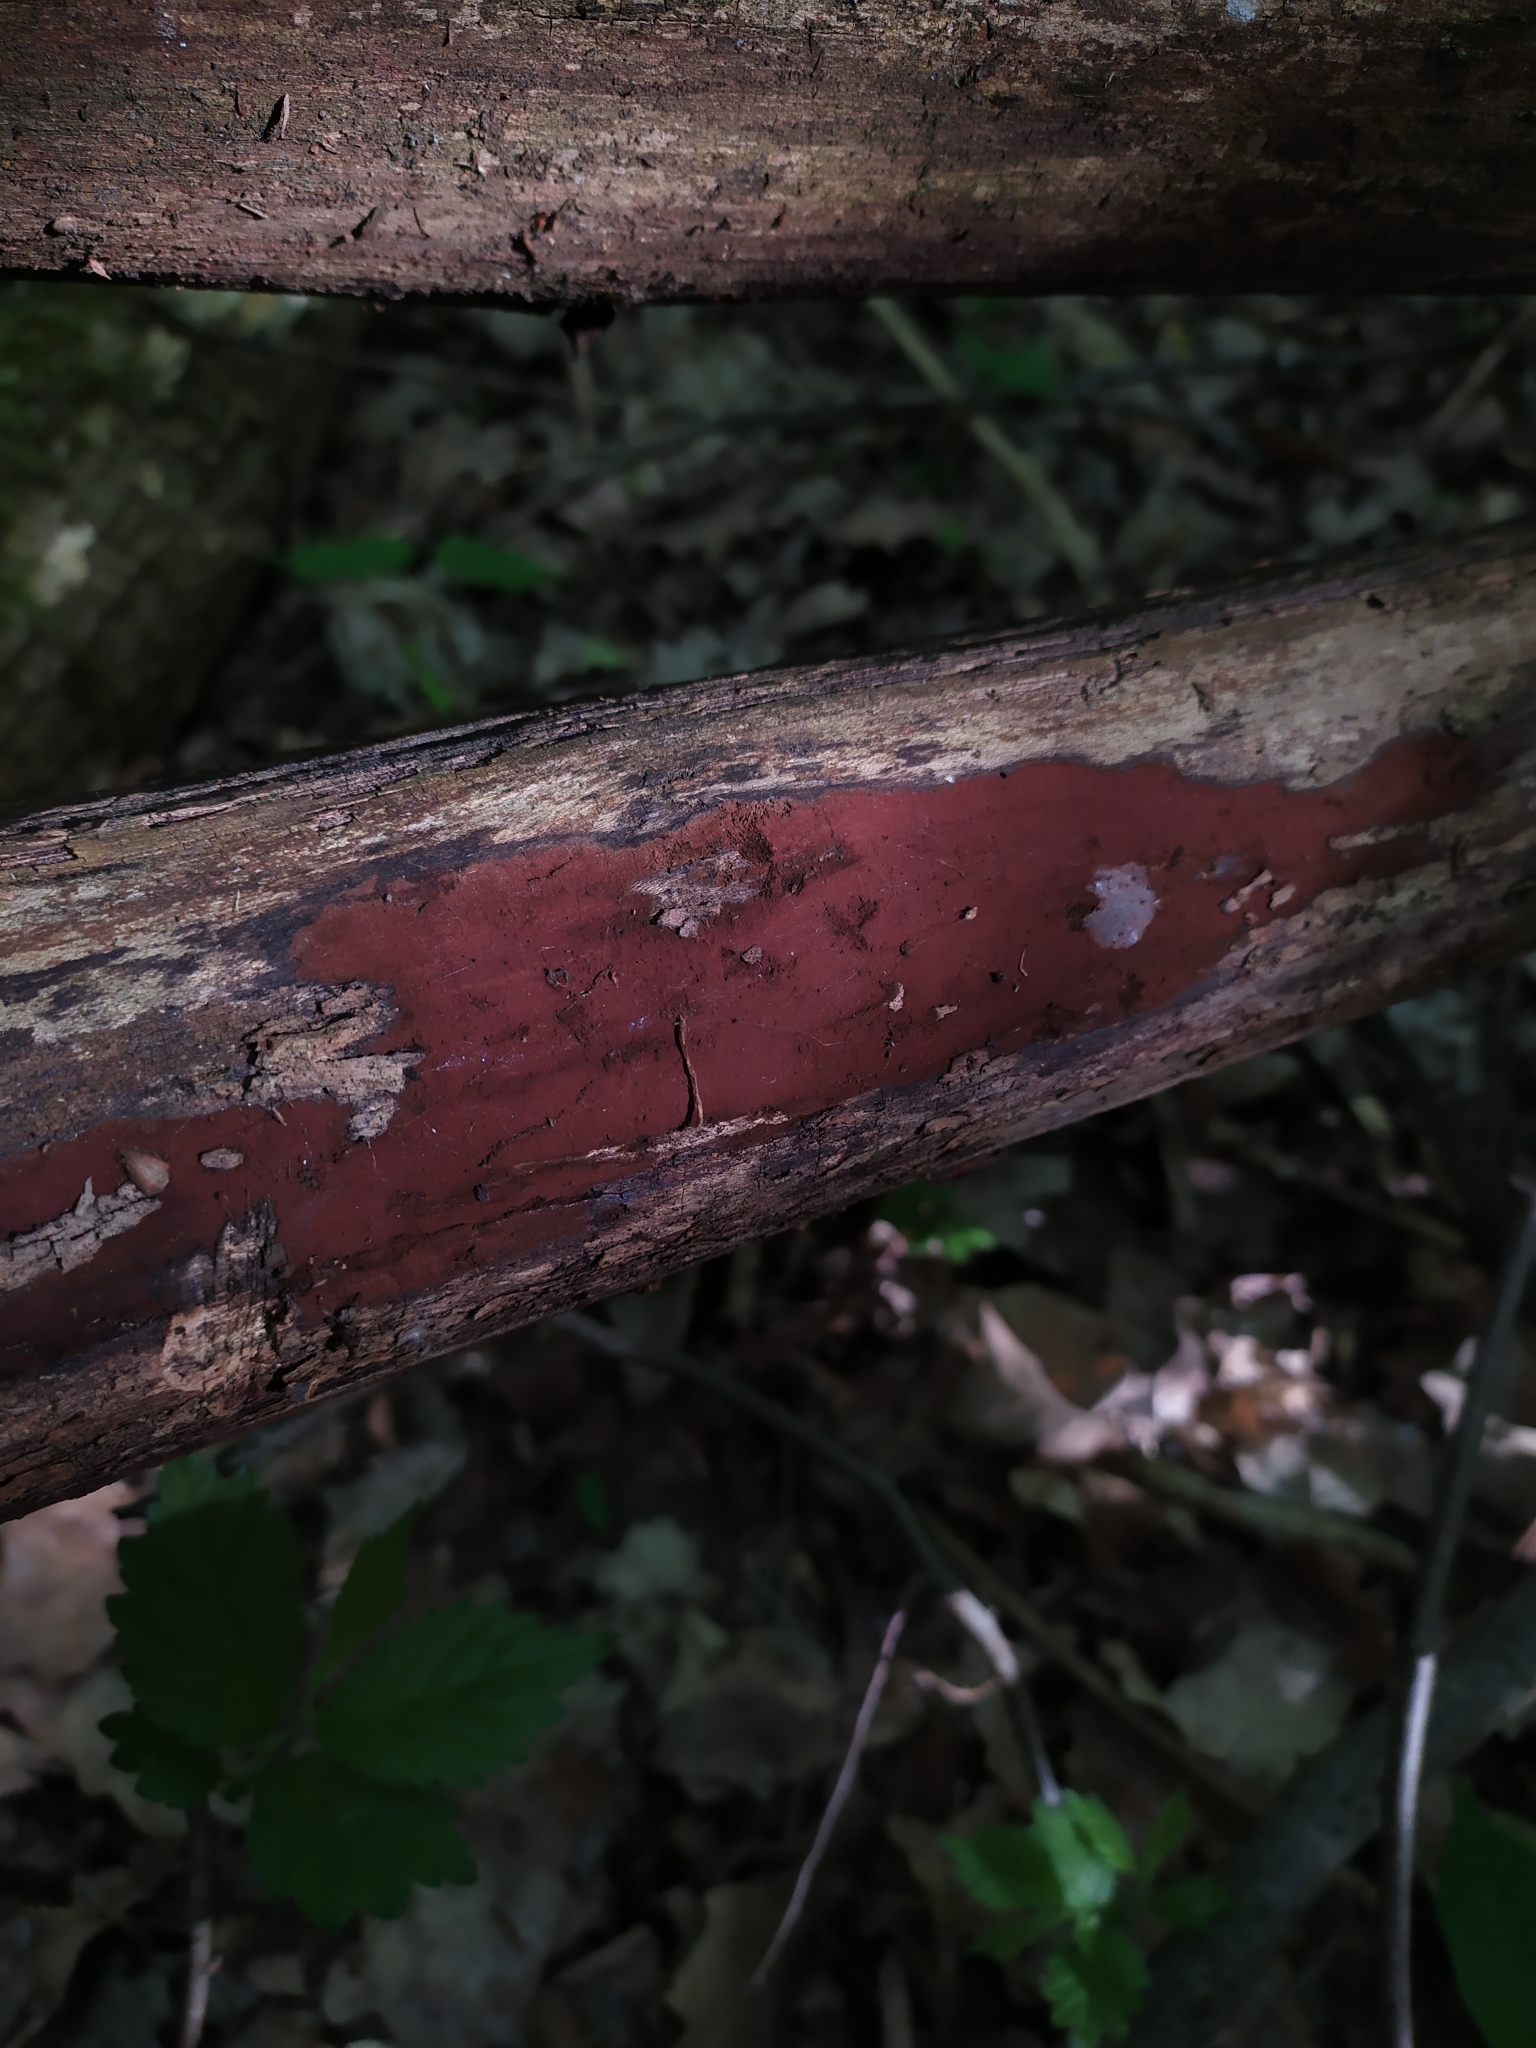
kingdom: Fungi
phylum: Ascomycota
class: Sordariomycetes
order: Xylariales
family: Hypoxylaceae
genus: Hypoxylon
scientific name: Hypoxylon rubiginosum
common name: Rusty woodwart
